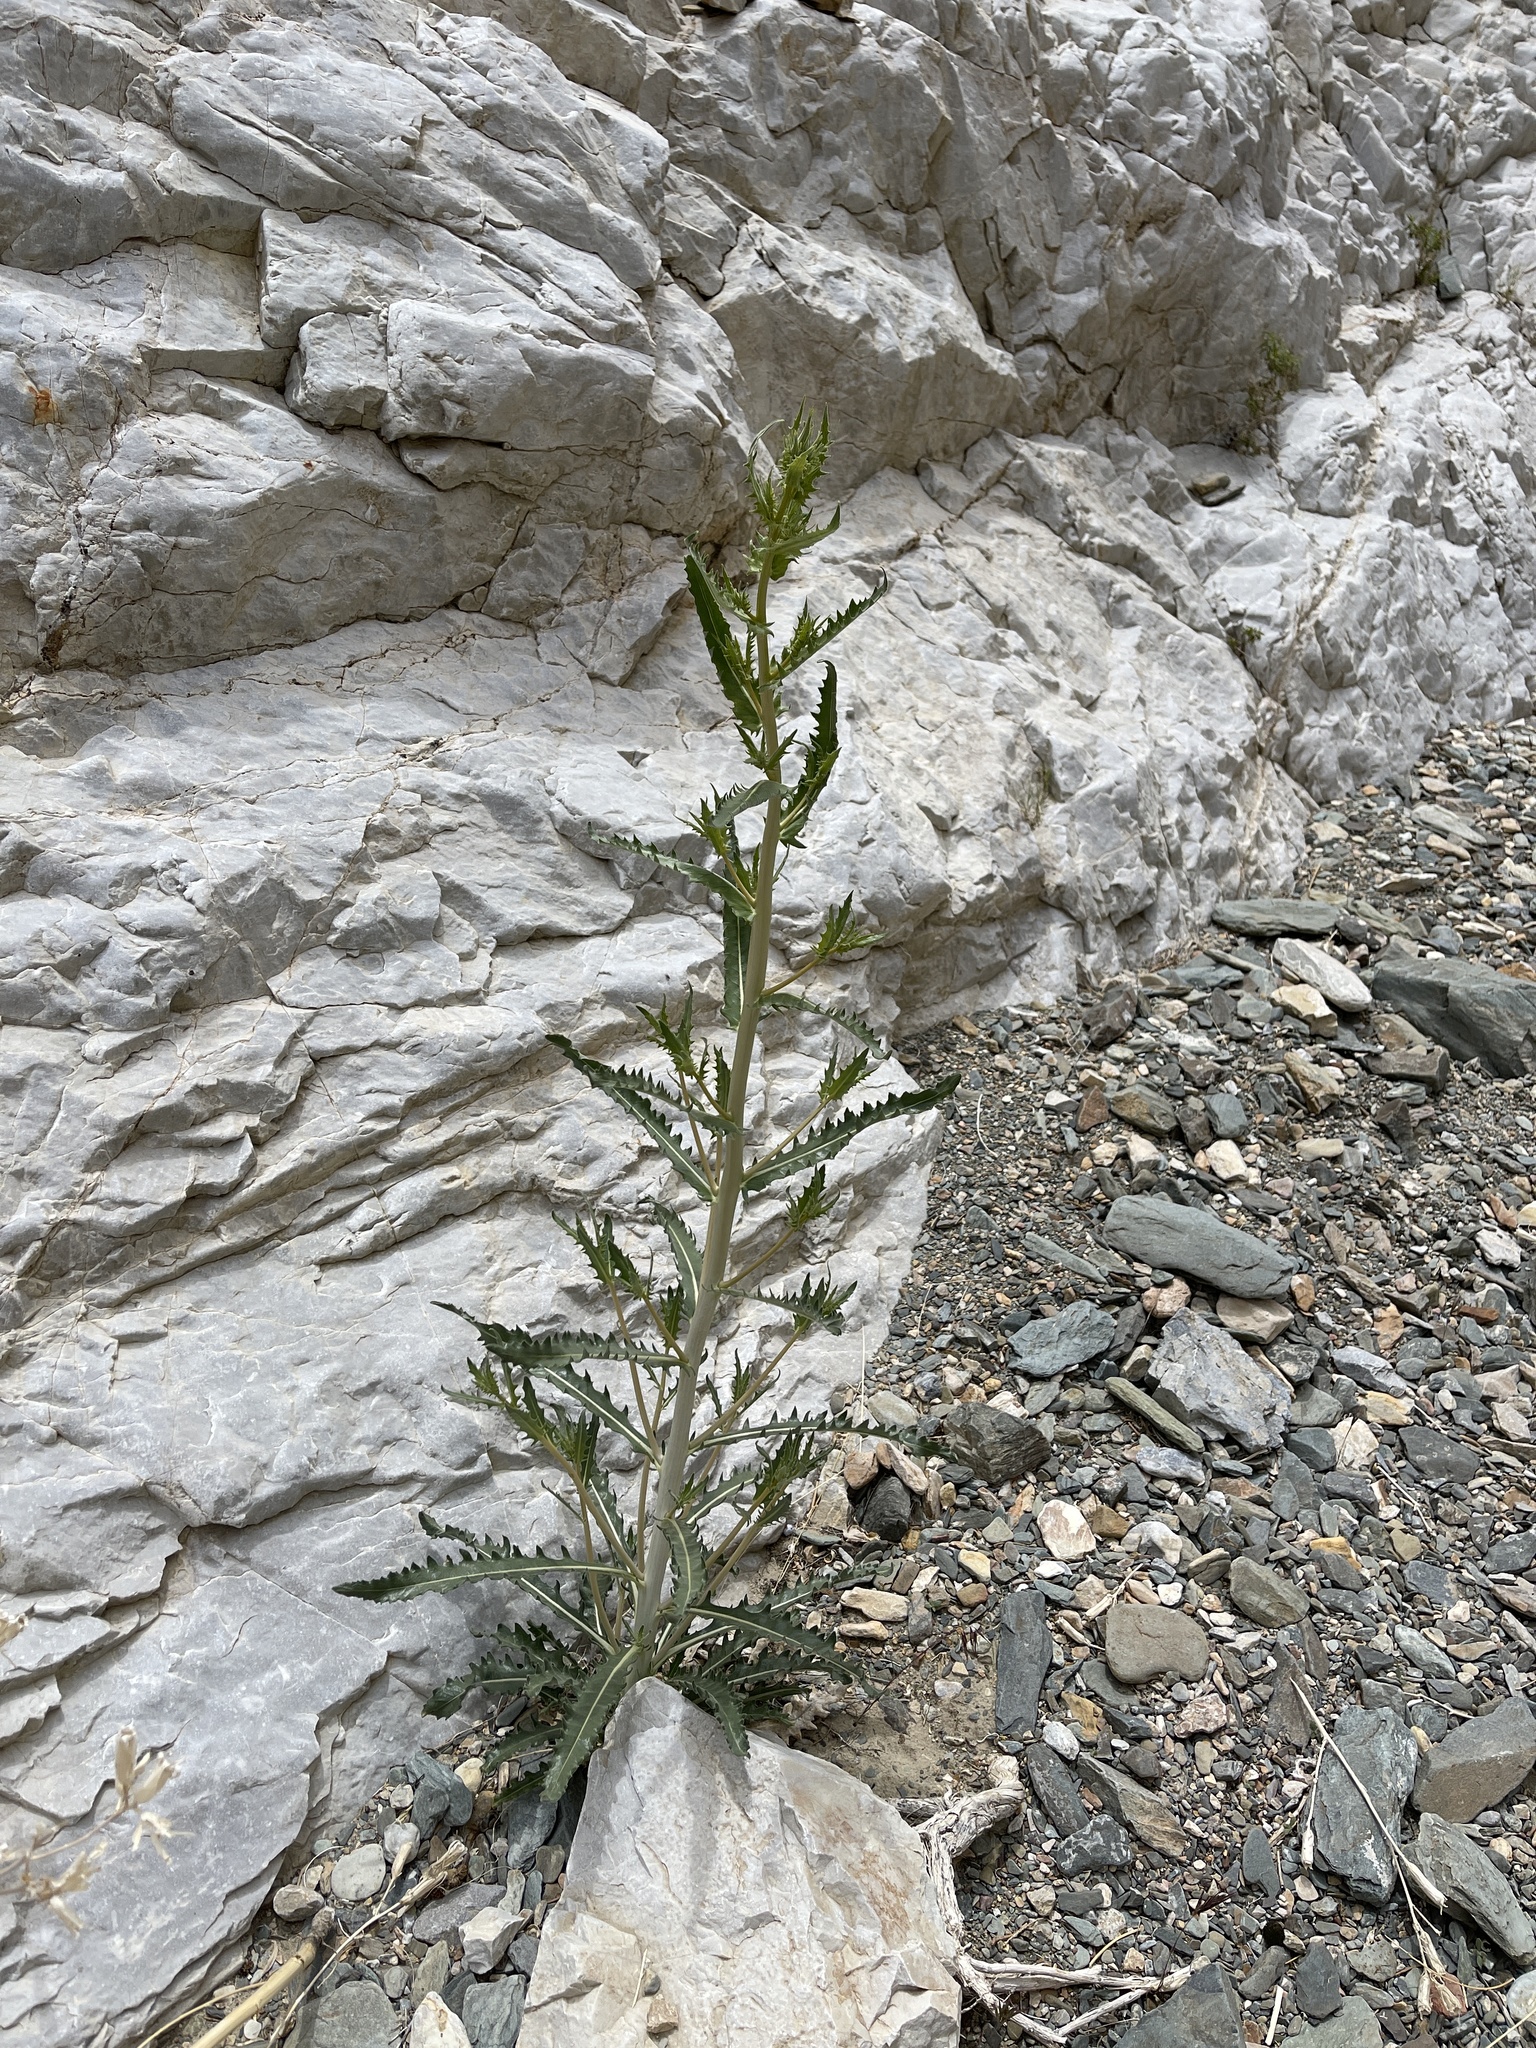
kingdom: Plantae
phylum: Tracheophyta
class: Magnoliopsida
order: Cornales
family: Loasaceae
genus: Mentzelia
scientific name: Mentzelia laevicaulis
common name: Smooth-stem blazingstar
